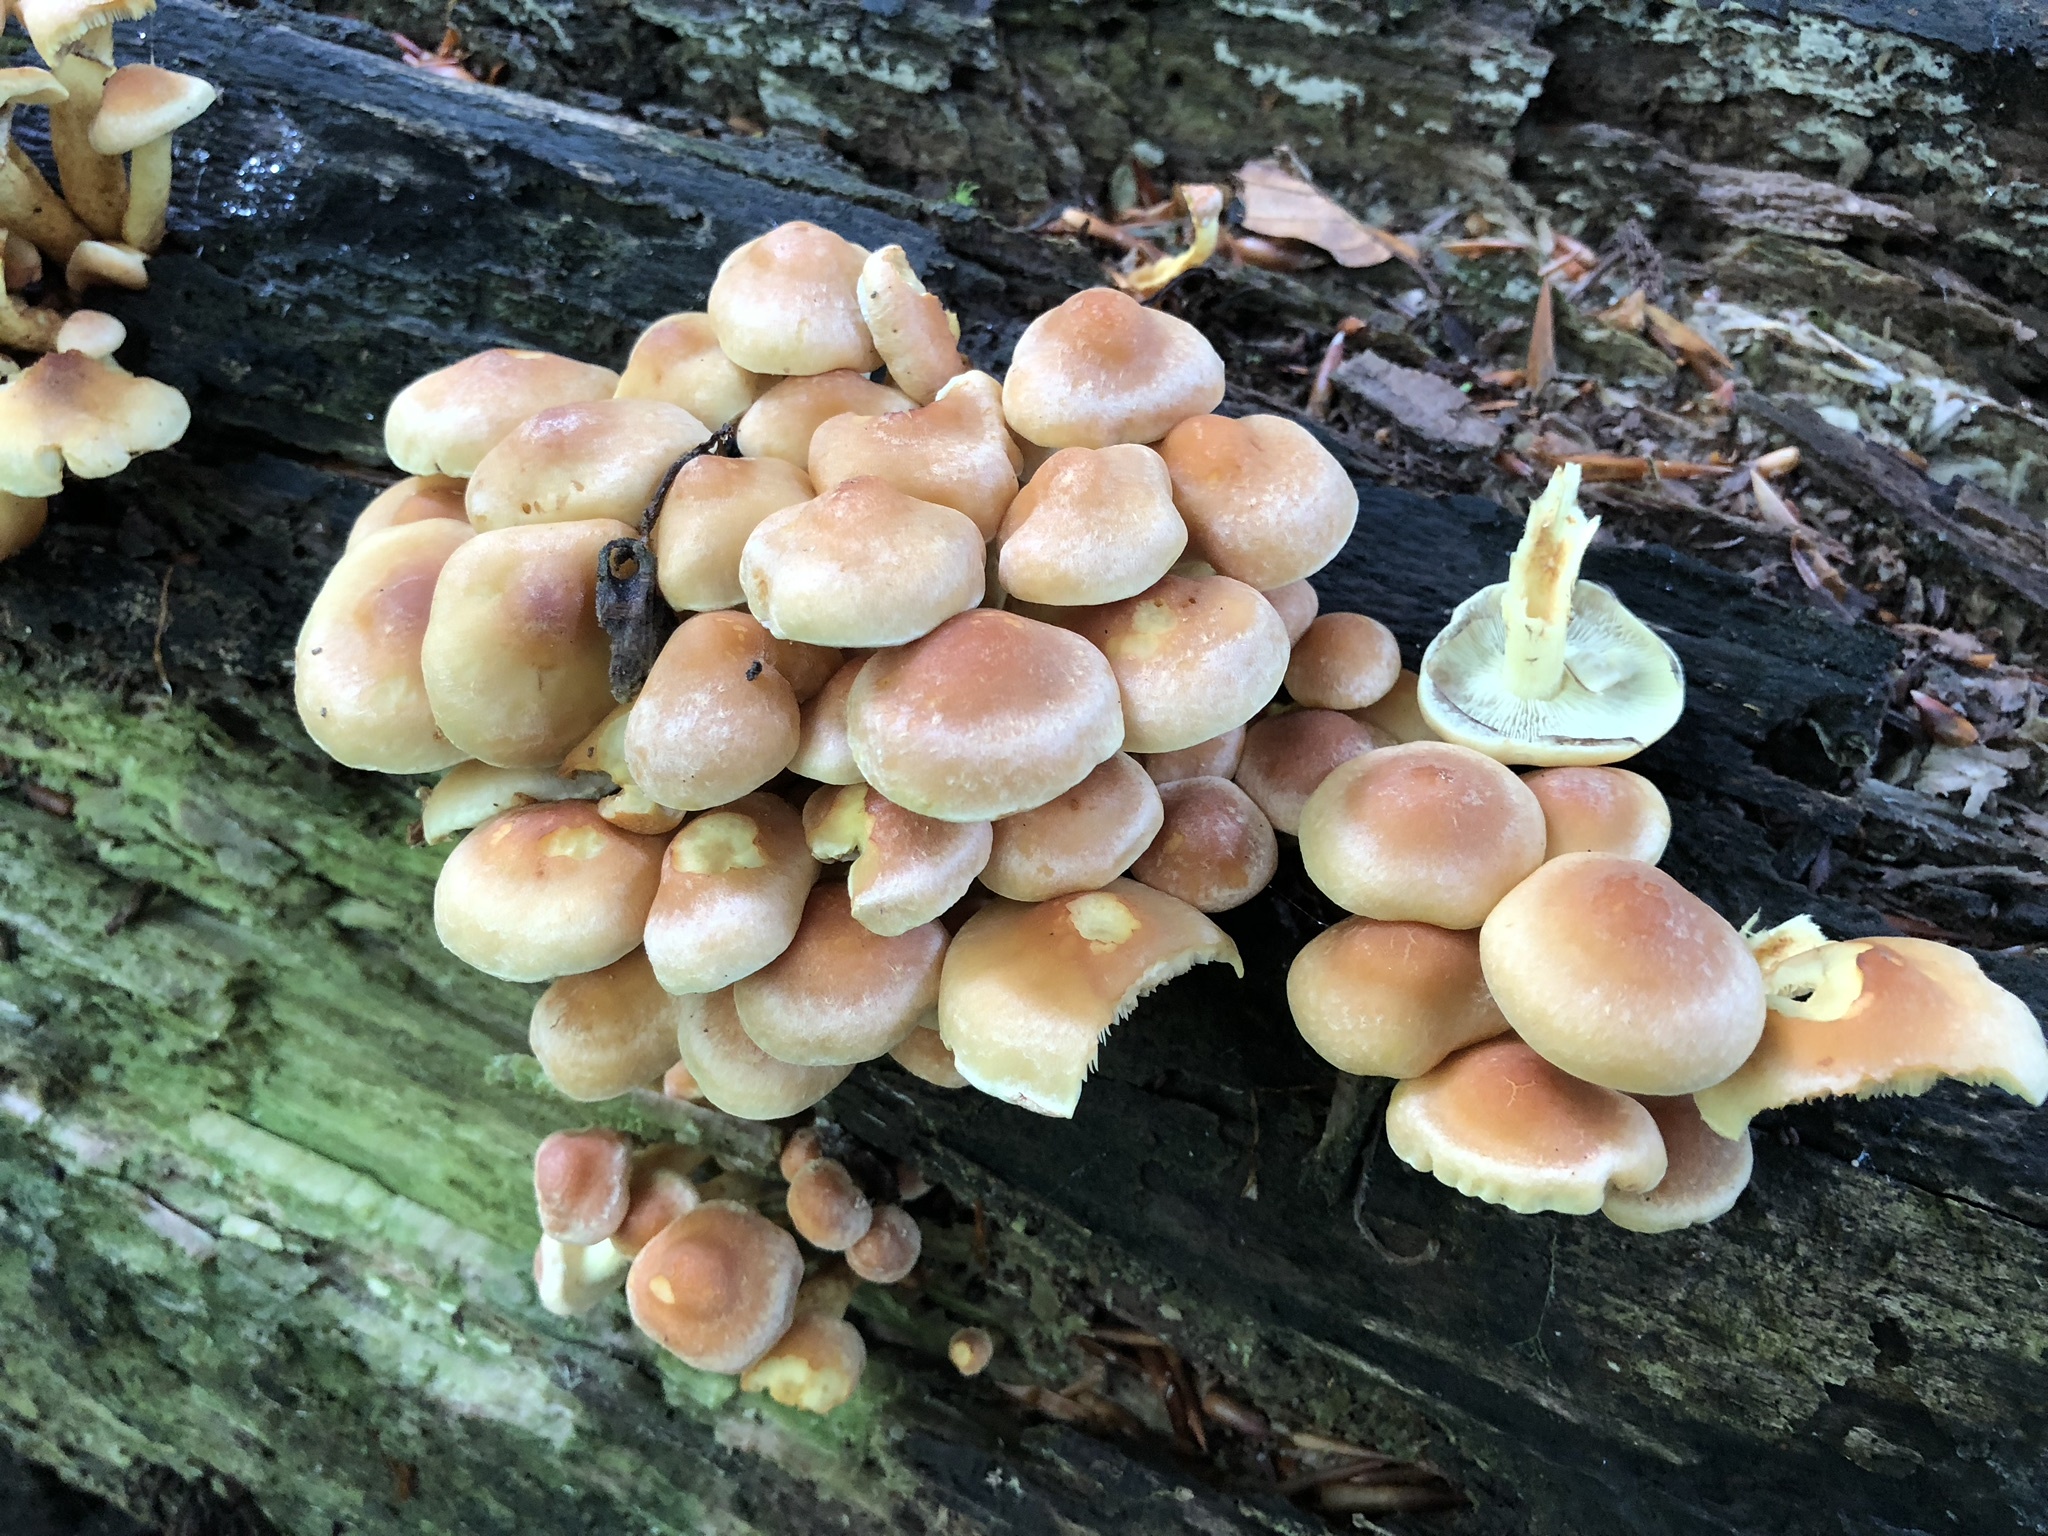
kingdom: Fungi
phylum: Basidiomycota
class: Agaricomycetes
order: Agaricales
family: Strophariaceae
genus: Hypholoma
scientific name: Hypholoma fasciculare
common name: Sulphur tuft
